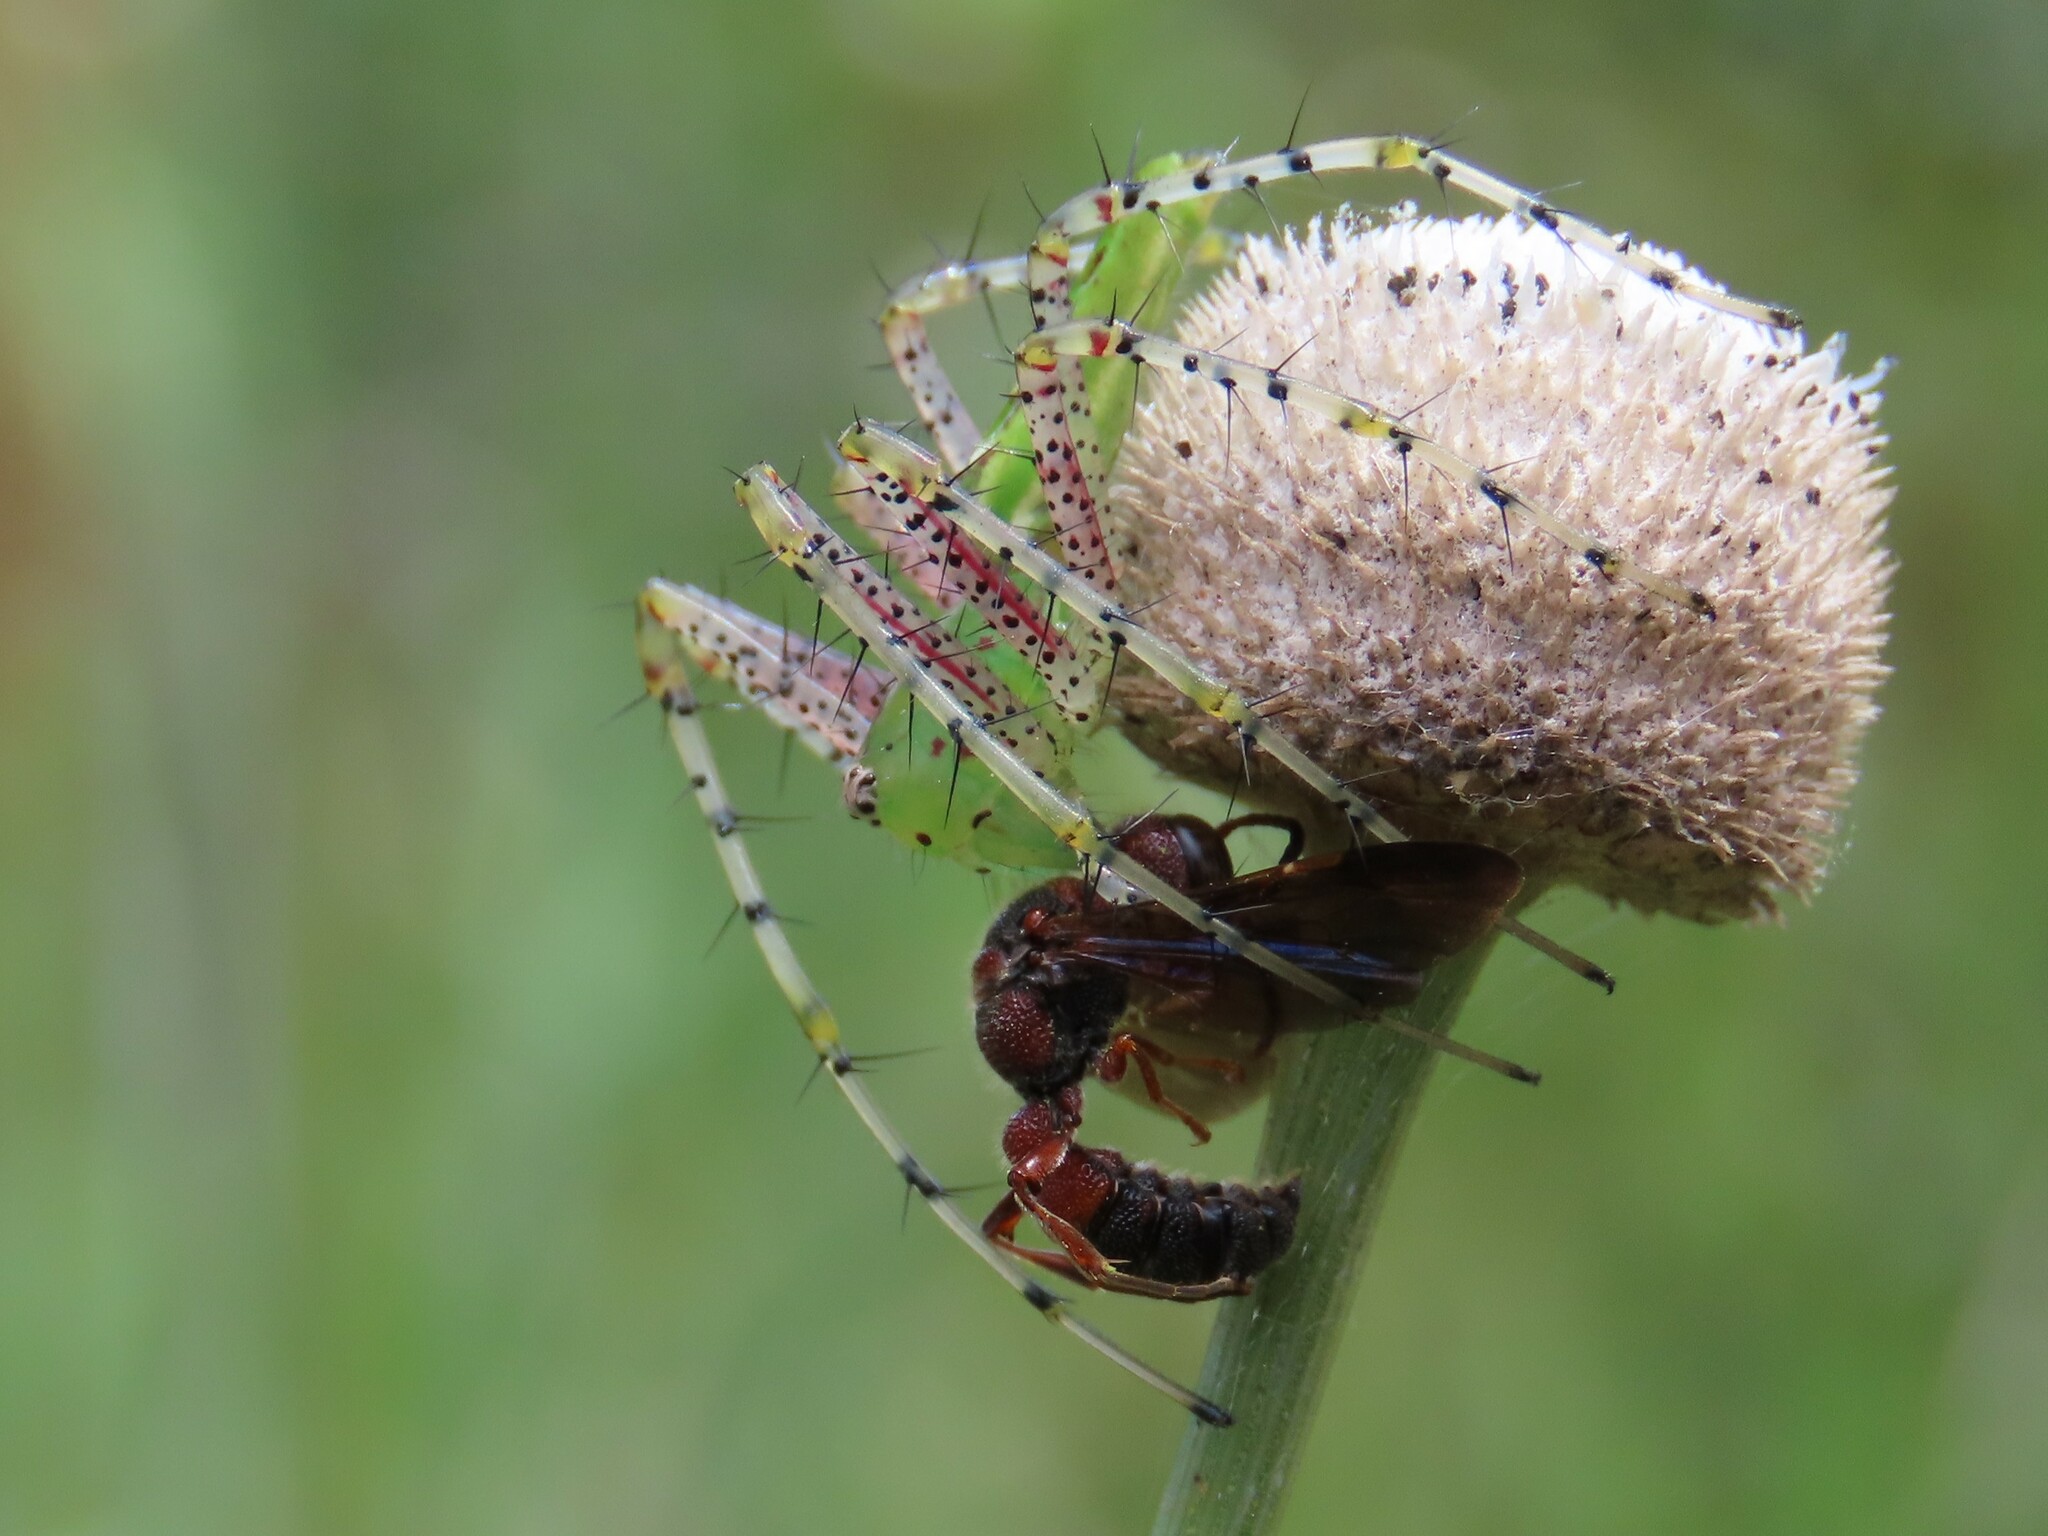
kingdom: Animalia
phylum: Arthropoda
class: Arachnida
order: Araneae
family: Oxyopidae
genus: Peucetia
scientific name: Peucetia viridans
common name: Lynx spiders
